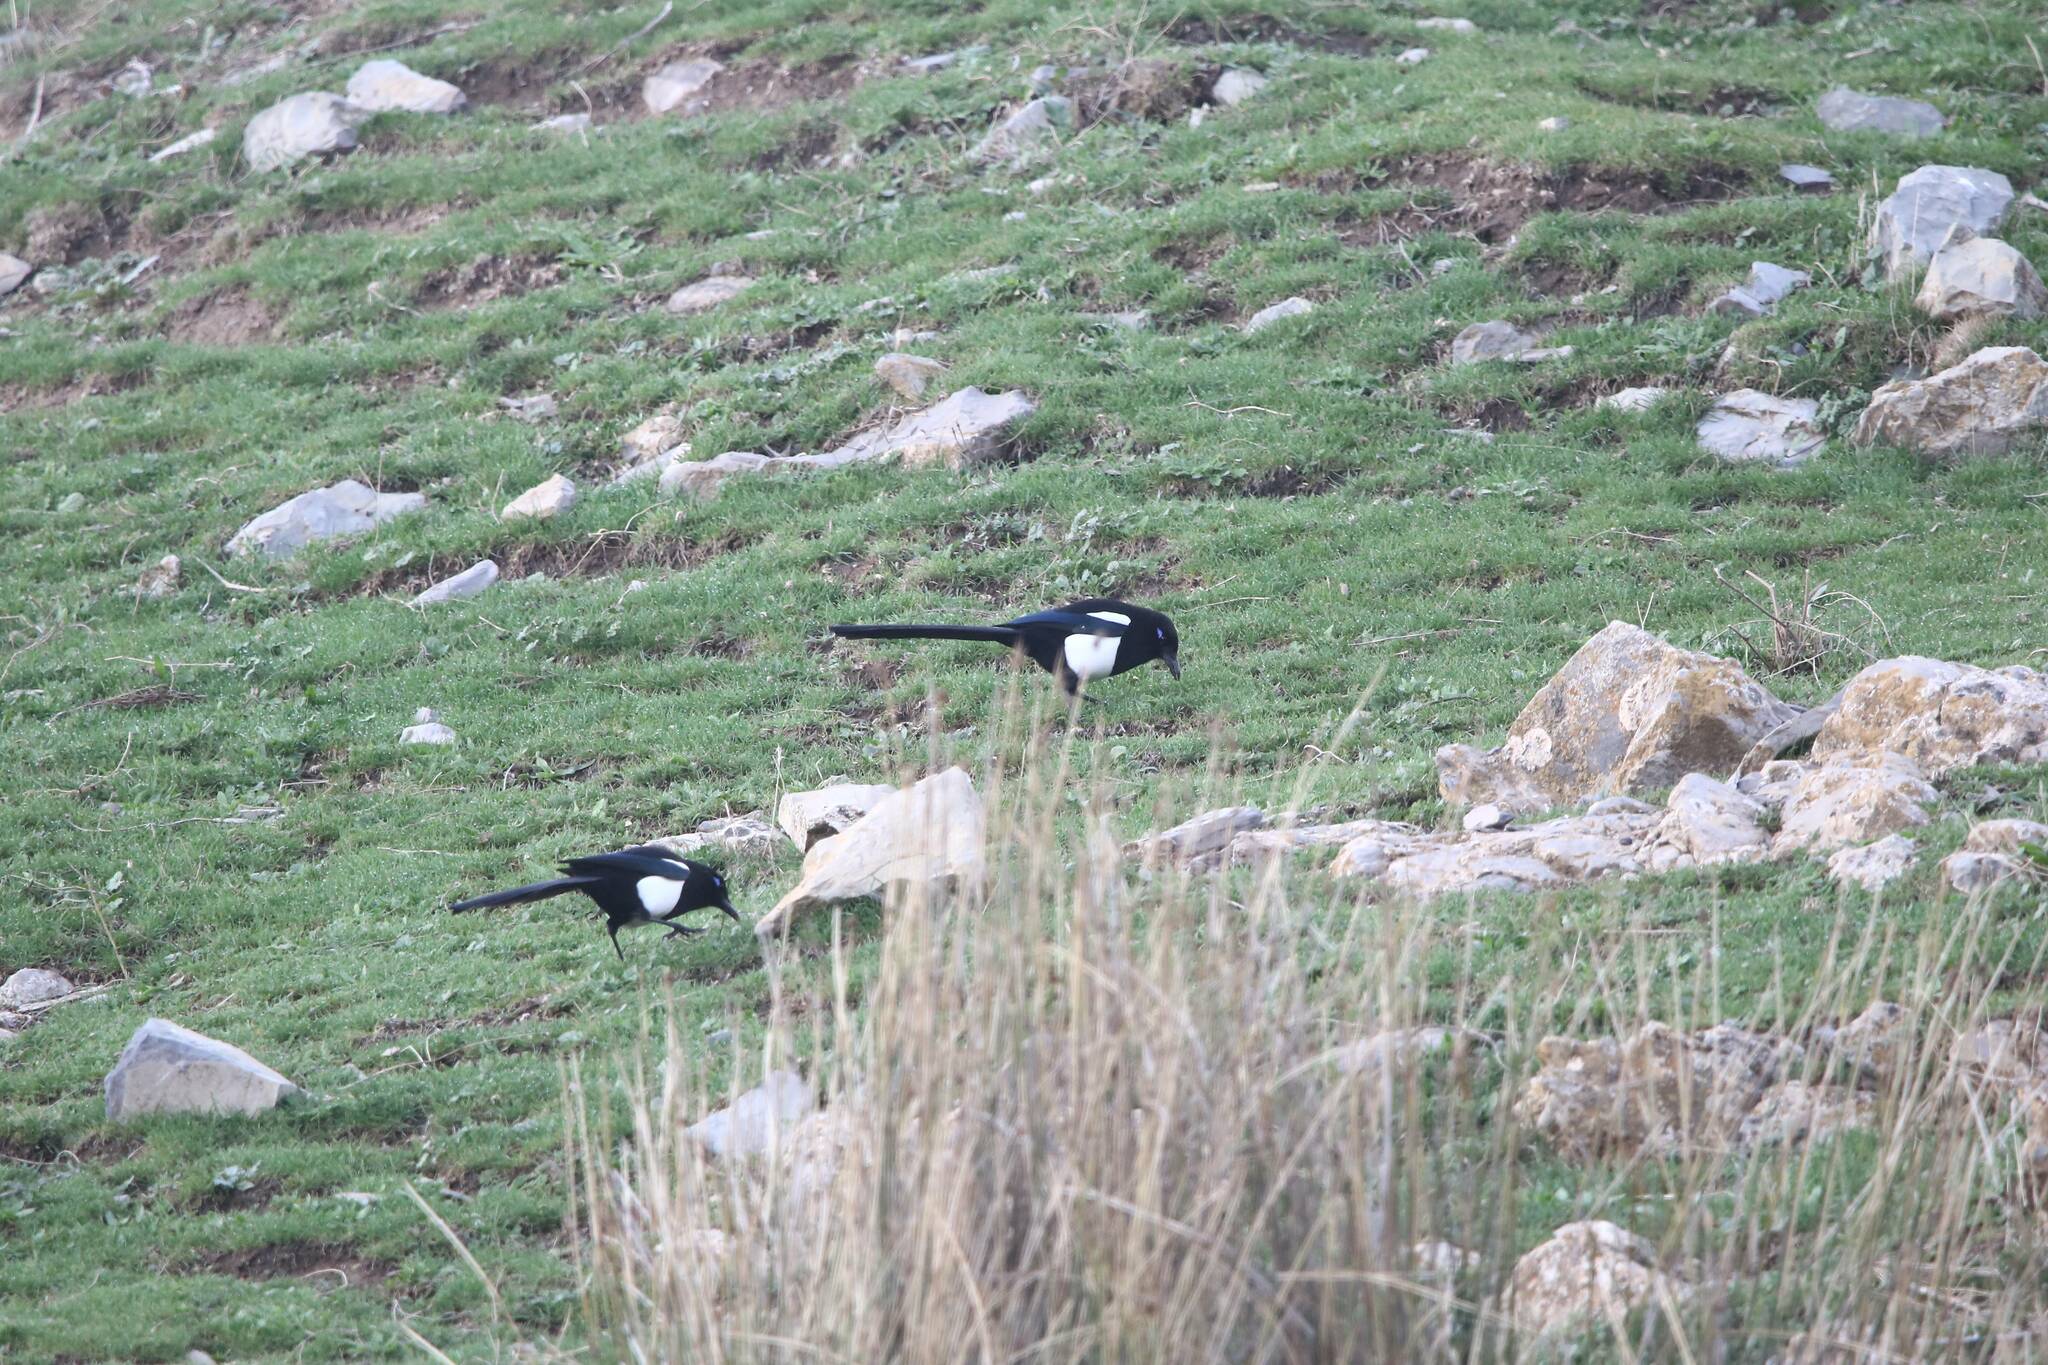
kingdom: Animalia
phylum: Chordata
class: Aves
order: Passeriformes
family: Corvidae
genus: Pica
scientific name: Pica mauritanica
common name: Maghreb magpie
